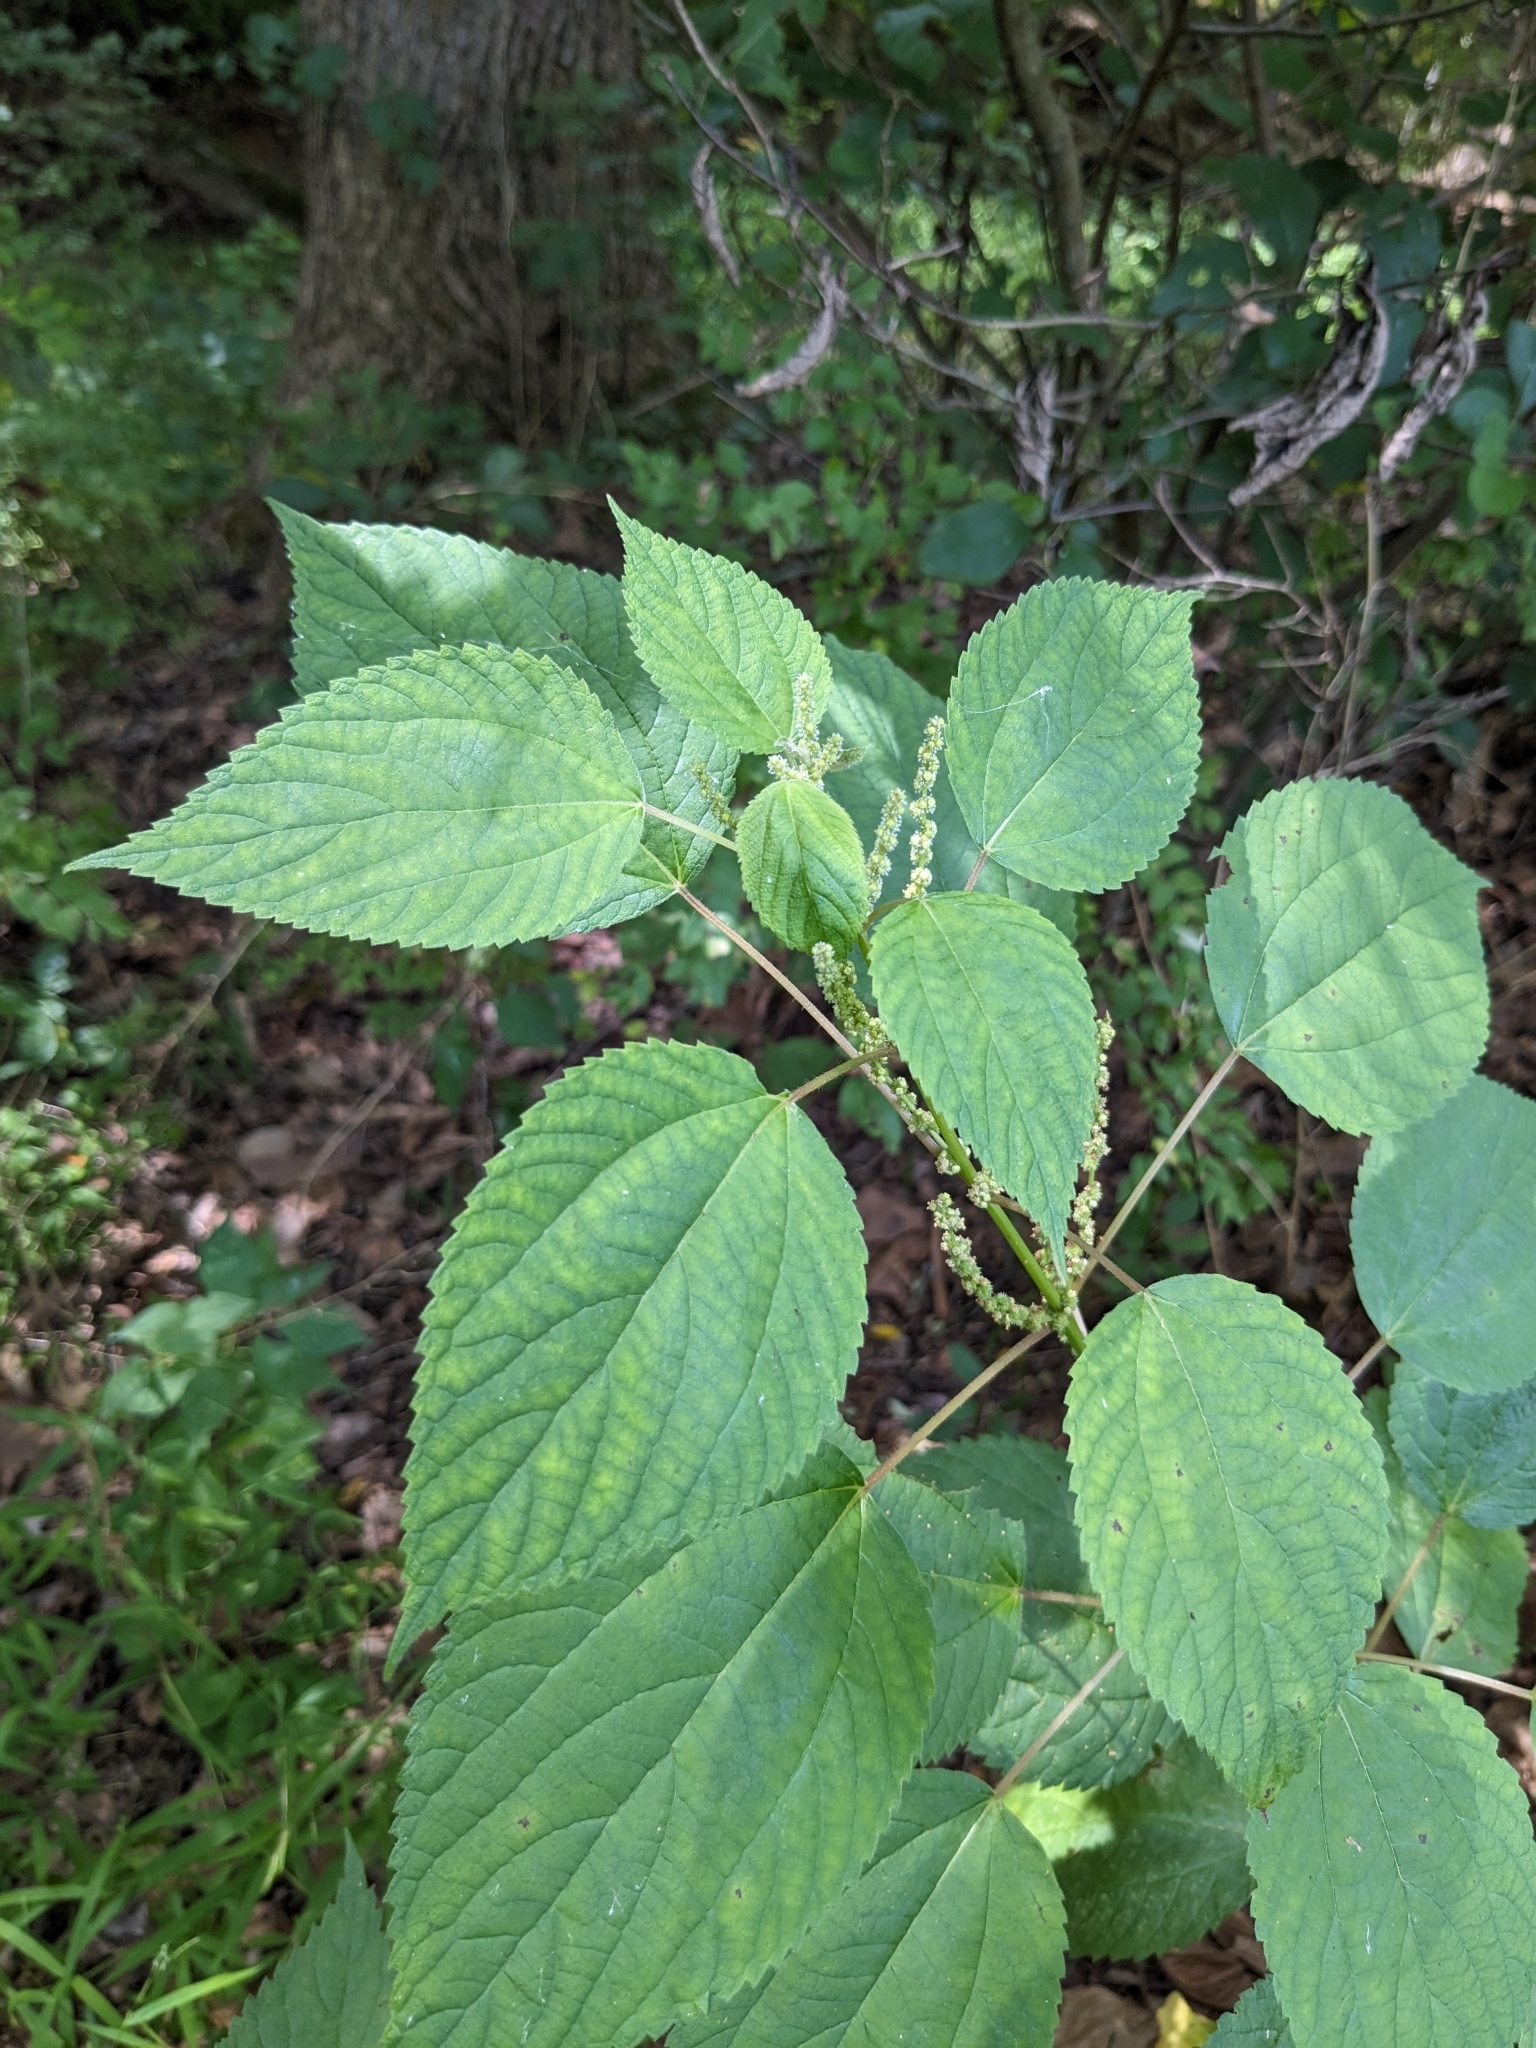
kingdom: Plantae
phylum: Tracheophyta
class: Magnoliopsida
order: Rosales
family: Urticaceae
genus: Boehmeria
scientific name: Boehmeria cylindrica
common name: Bog-hemp
